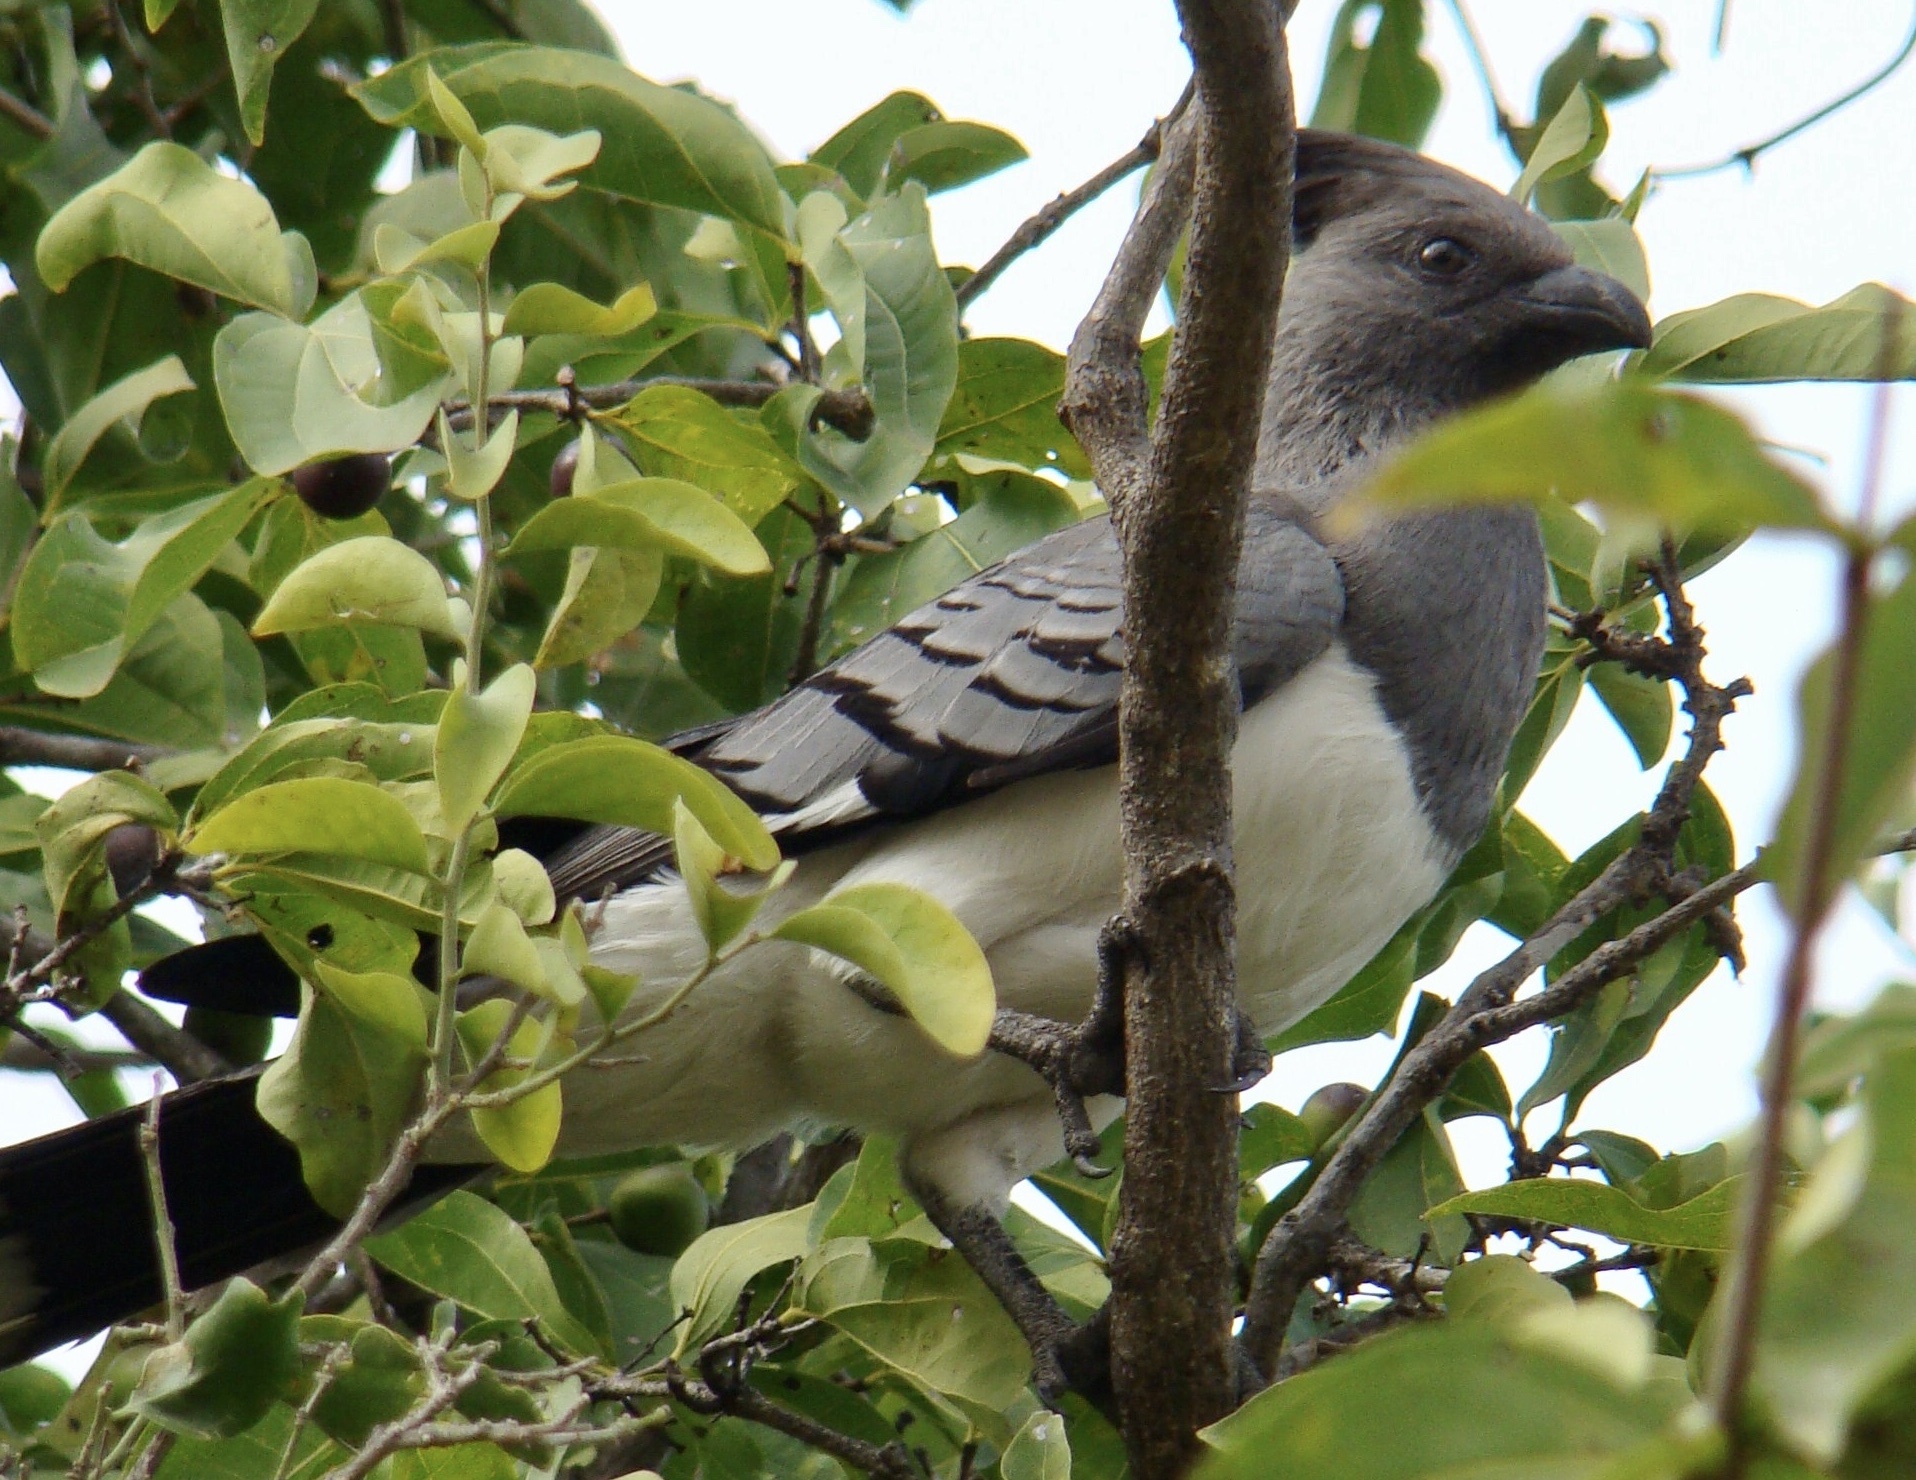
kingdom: Animalia
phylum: Chordata
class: Aves
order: Musophagiformes
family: Musophagidae
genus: Corythaixoides
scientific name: Corythaixoides leucogaster
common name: White-bellied go-away-bird
